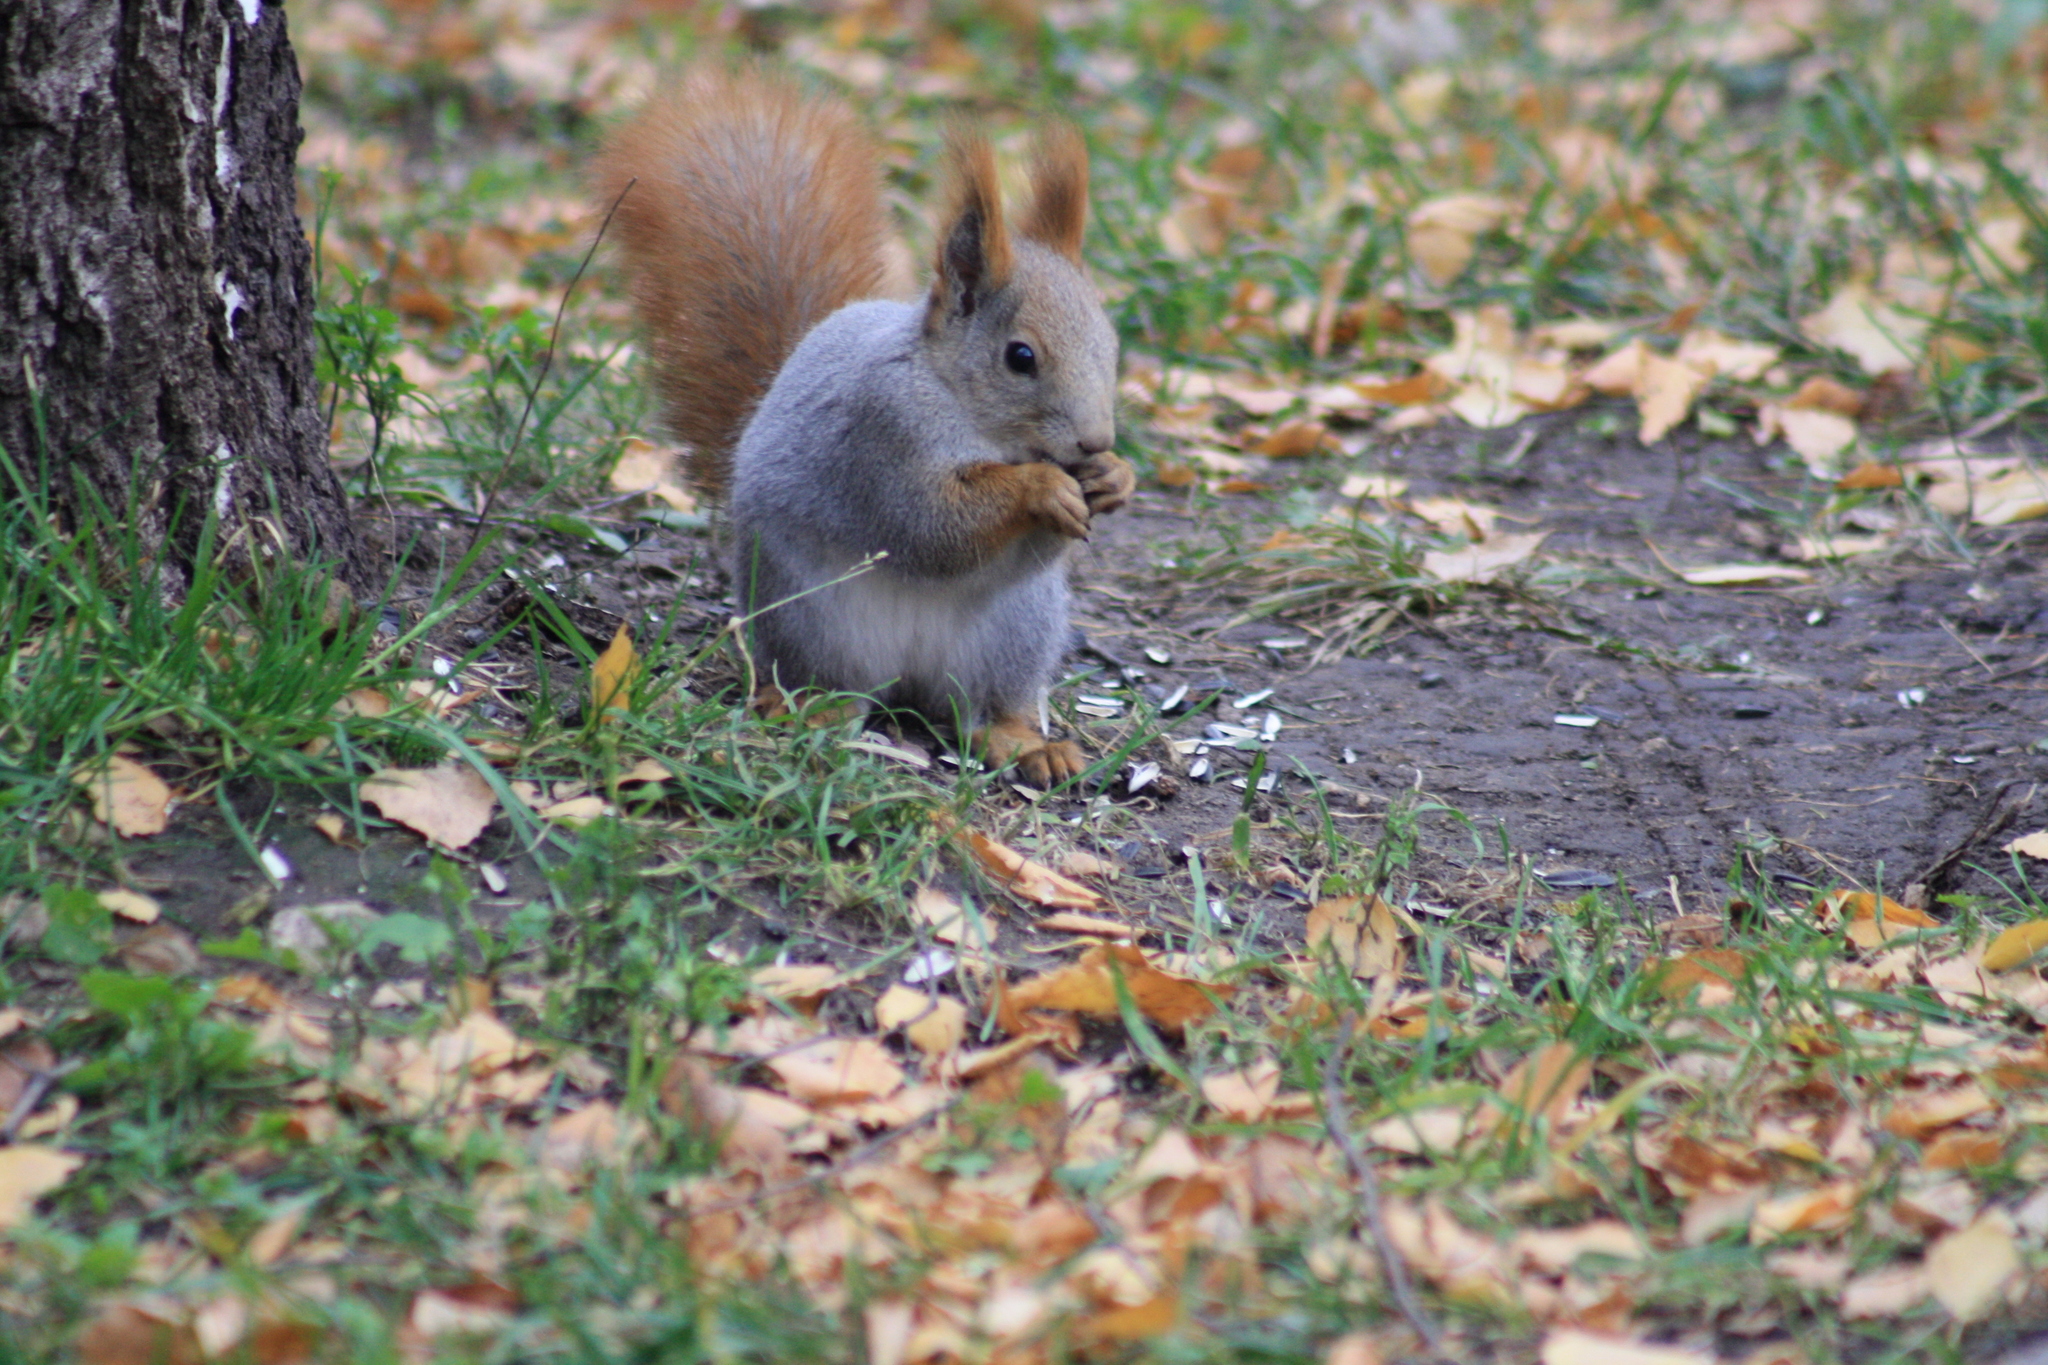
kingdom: Animalia
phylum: Chordata
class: Mammalia
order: Rodentia
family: Sciuridae
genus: Sciurus
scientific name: Sciurus vulgaris
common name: Eurasian red squirrel
